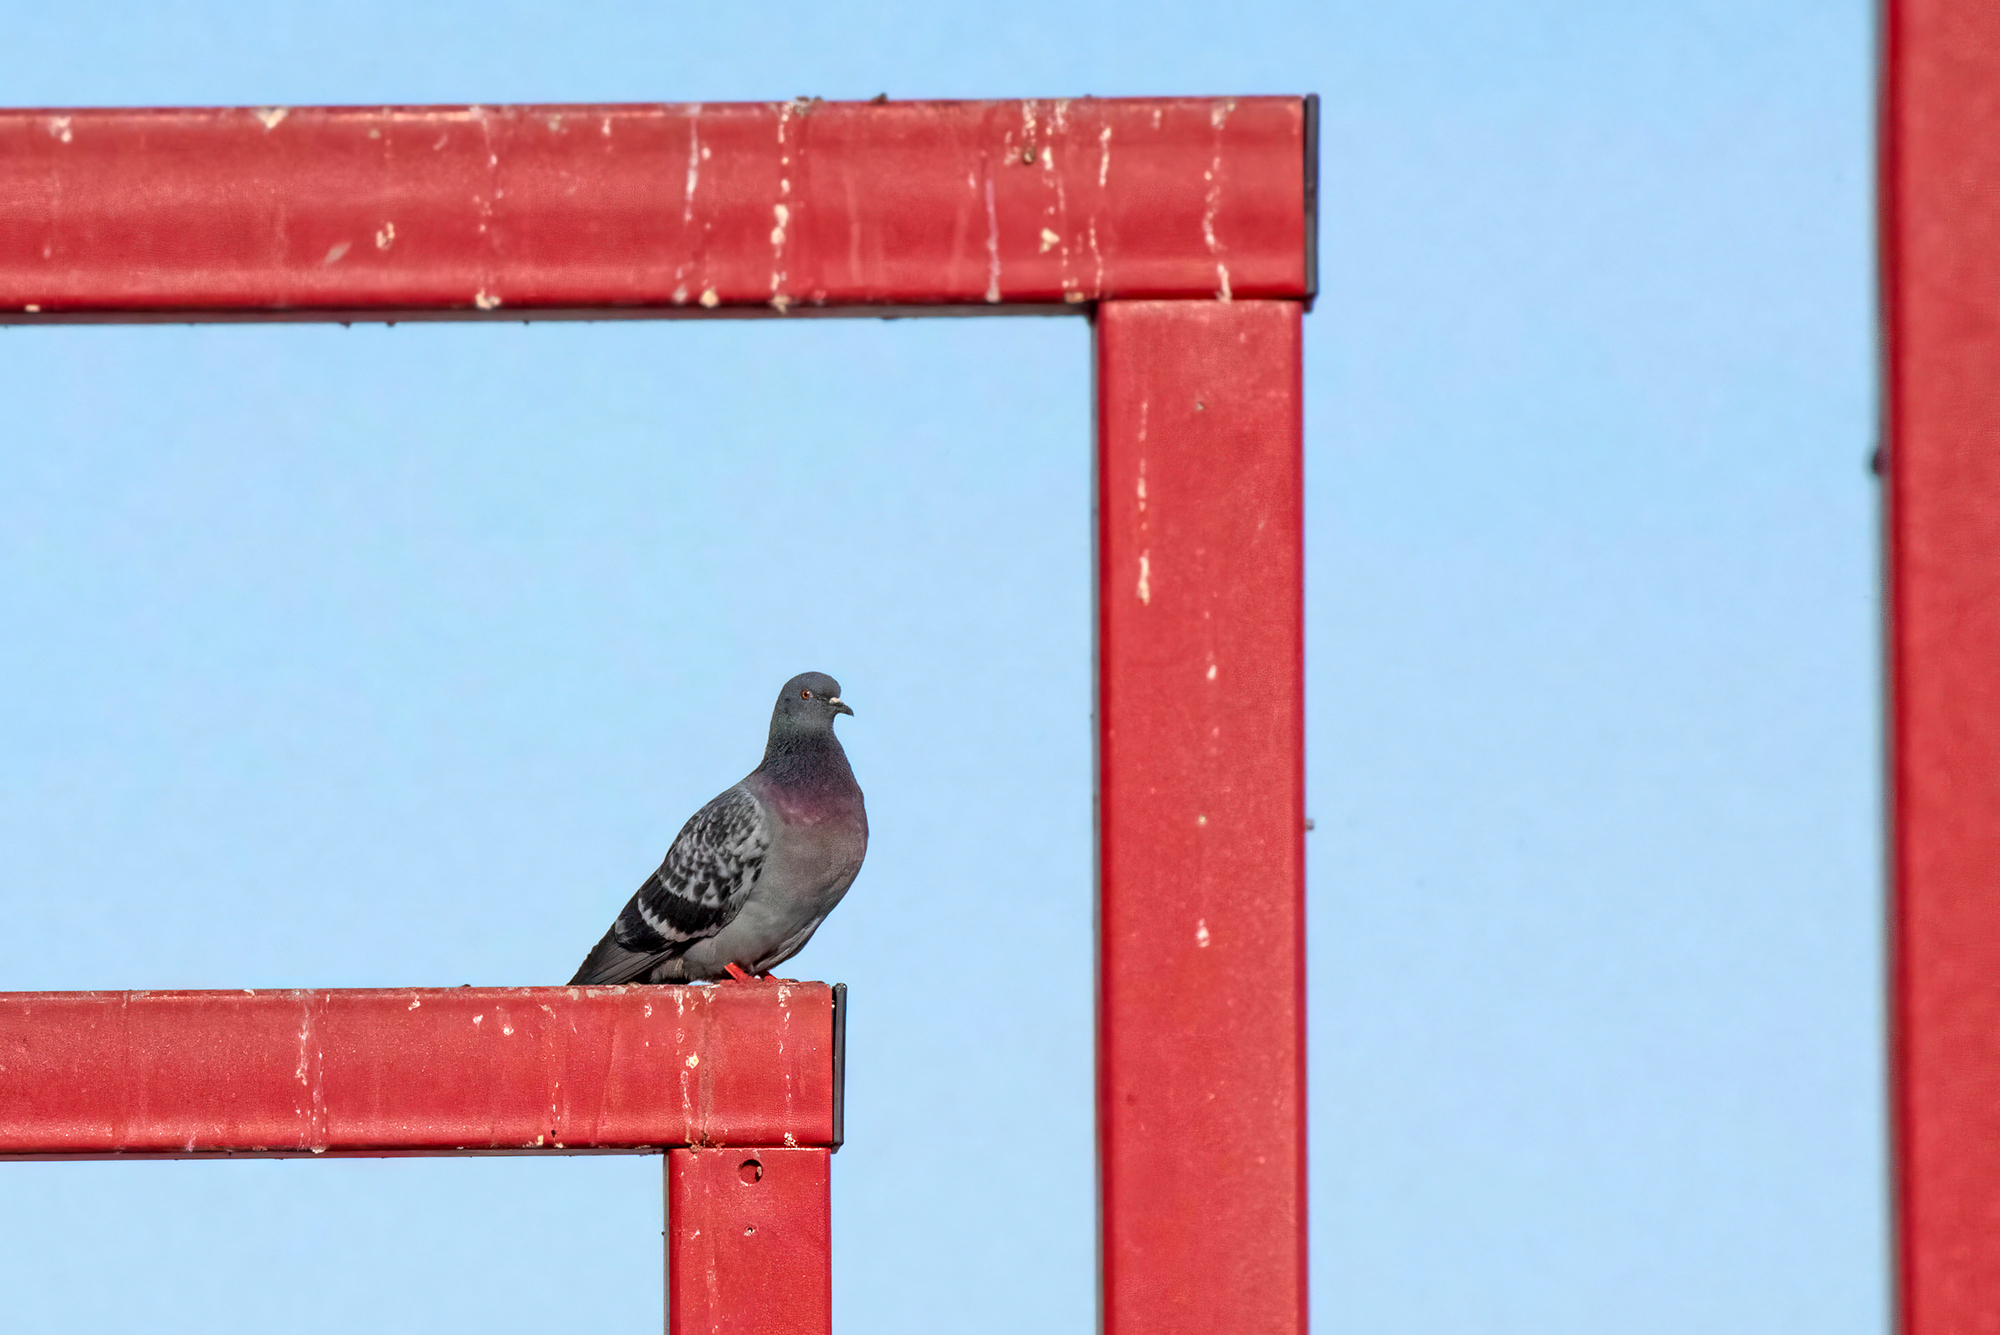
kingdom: Animalia
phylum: Chordata
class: Aves
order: Columbiformes
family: Columbidae
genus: Columba
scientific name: Columba livia
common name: Rock pigeon
